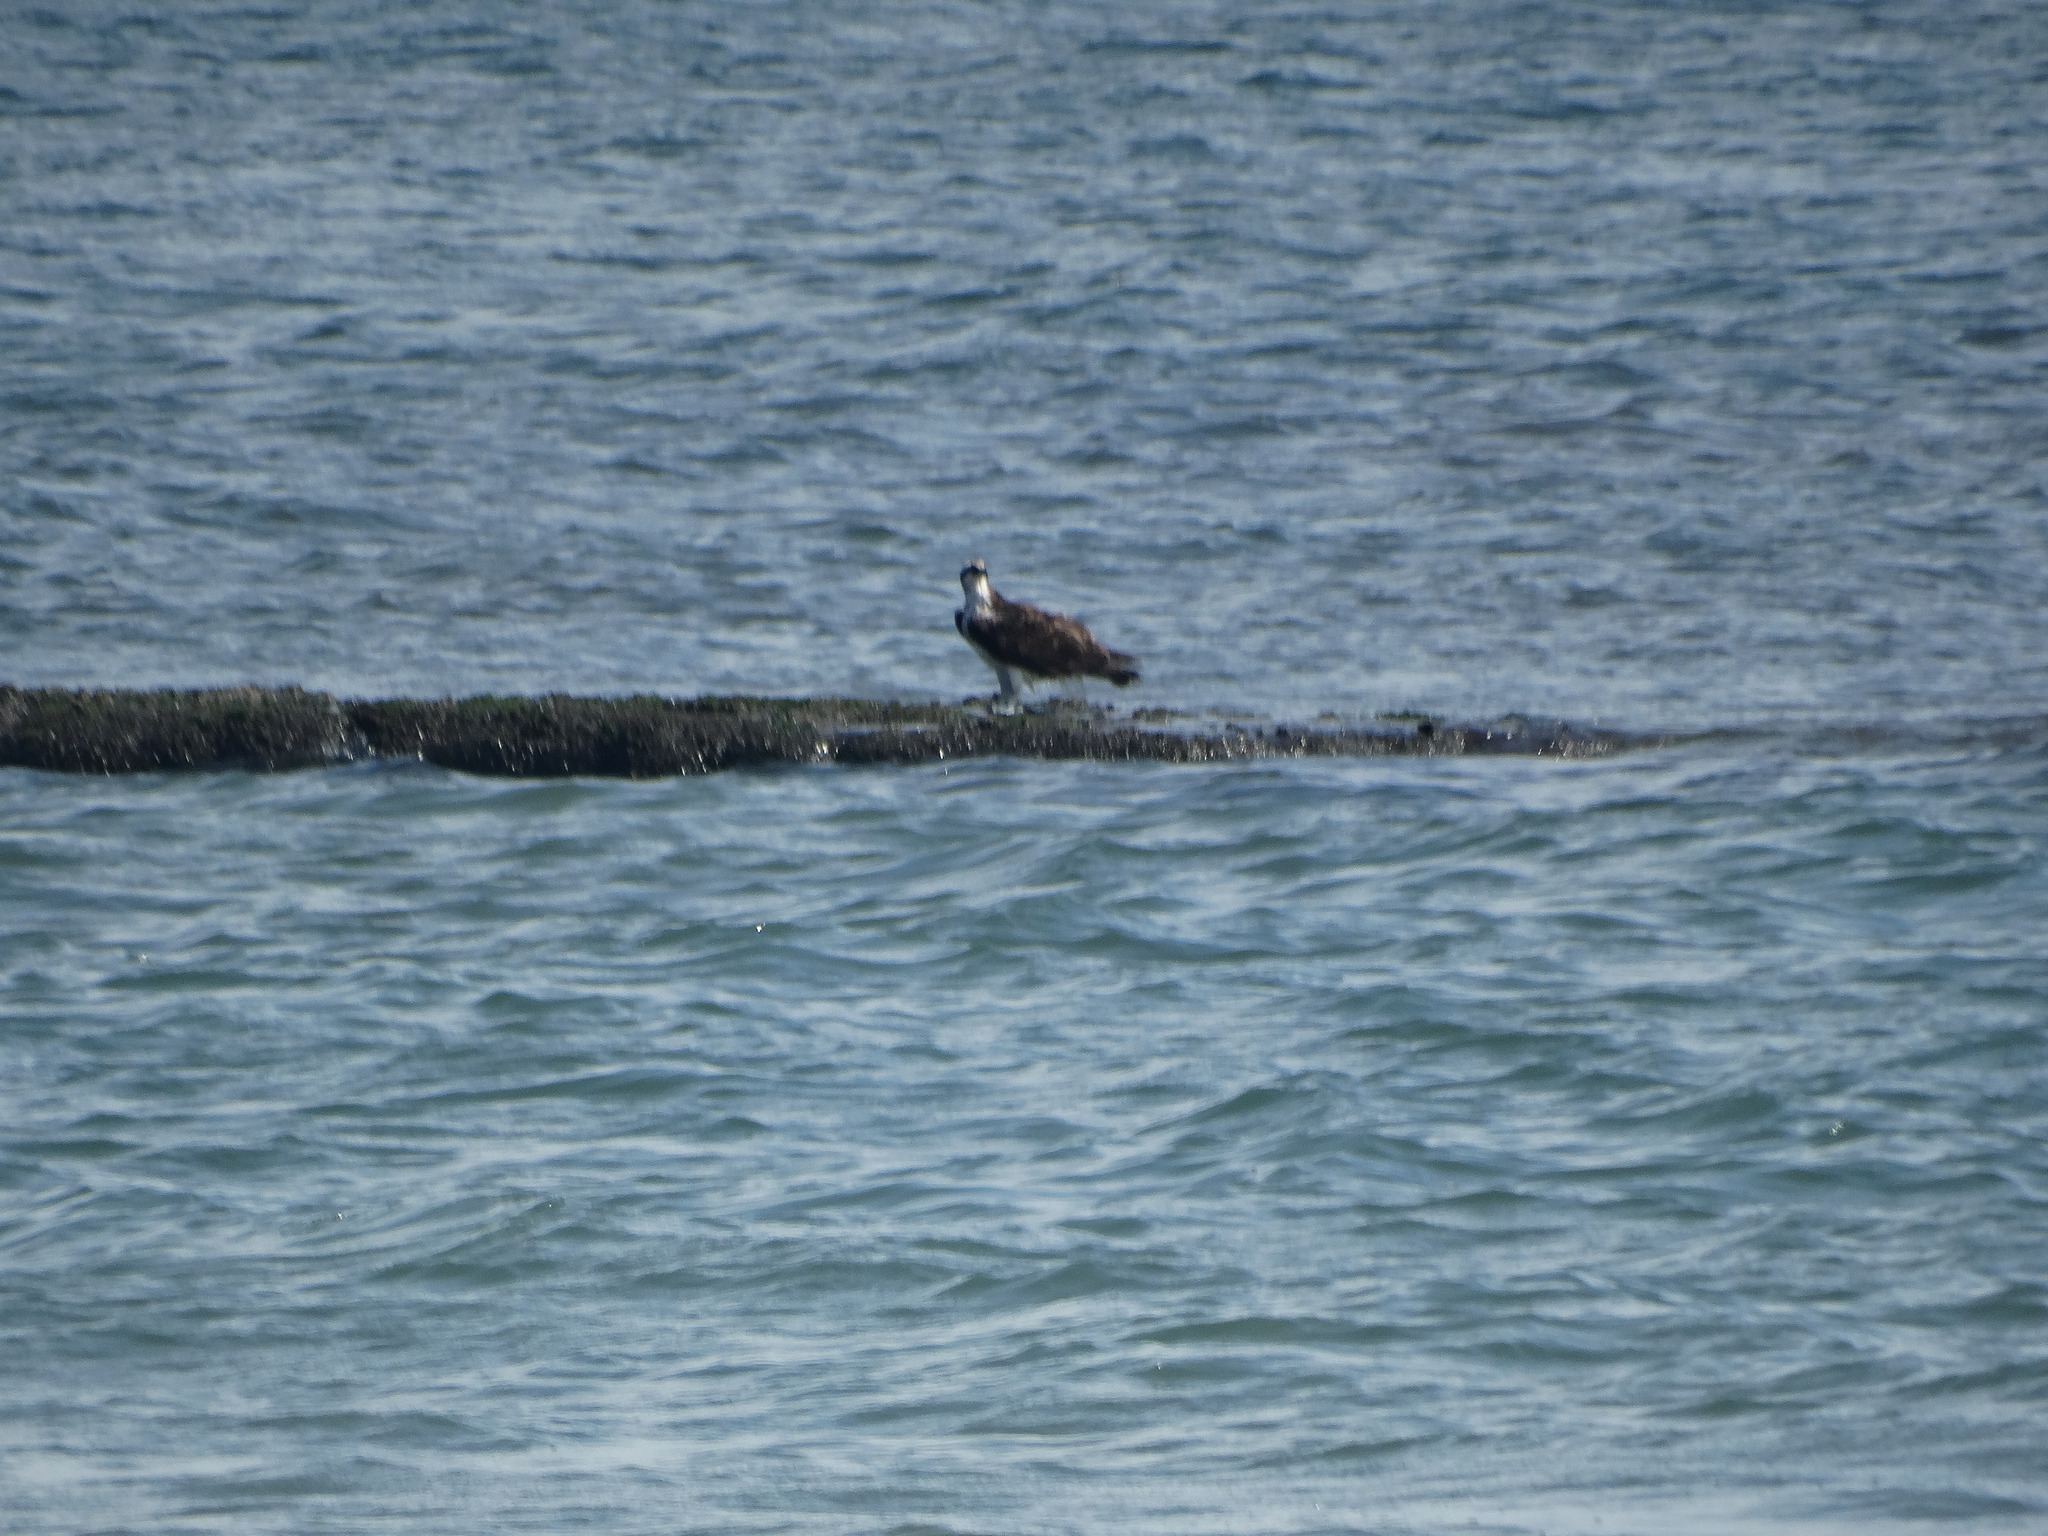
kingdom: Animalia
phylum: Chordata
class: Aves
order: Accipitriformes
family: Pandionidae
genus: Pandion
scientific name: Pandion haliaetus
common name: Osprey
